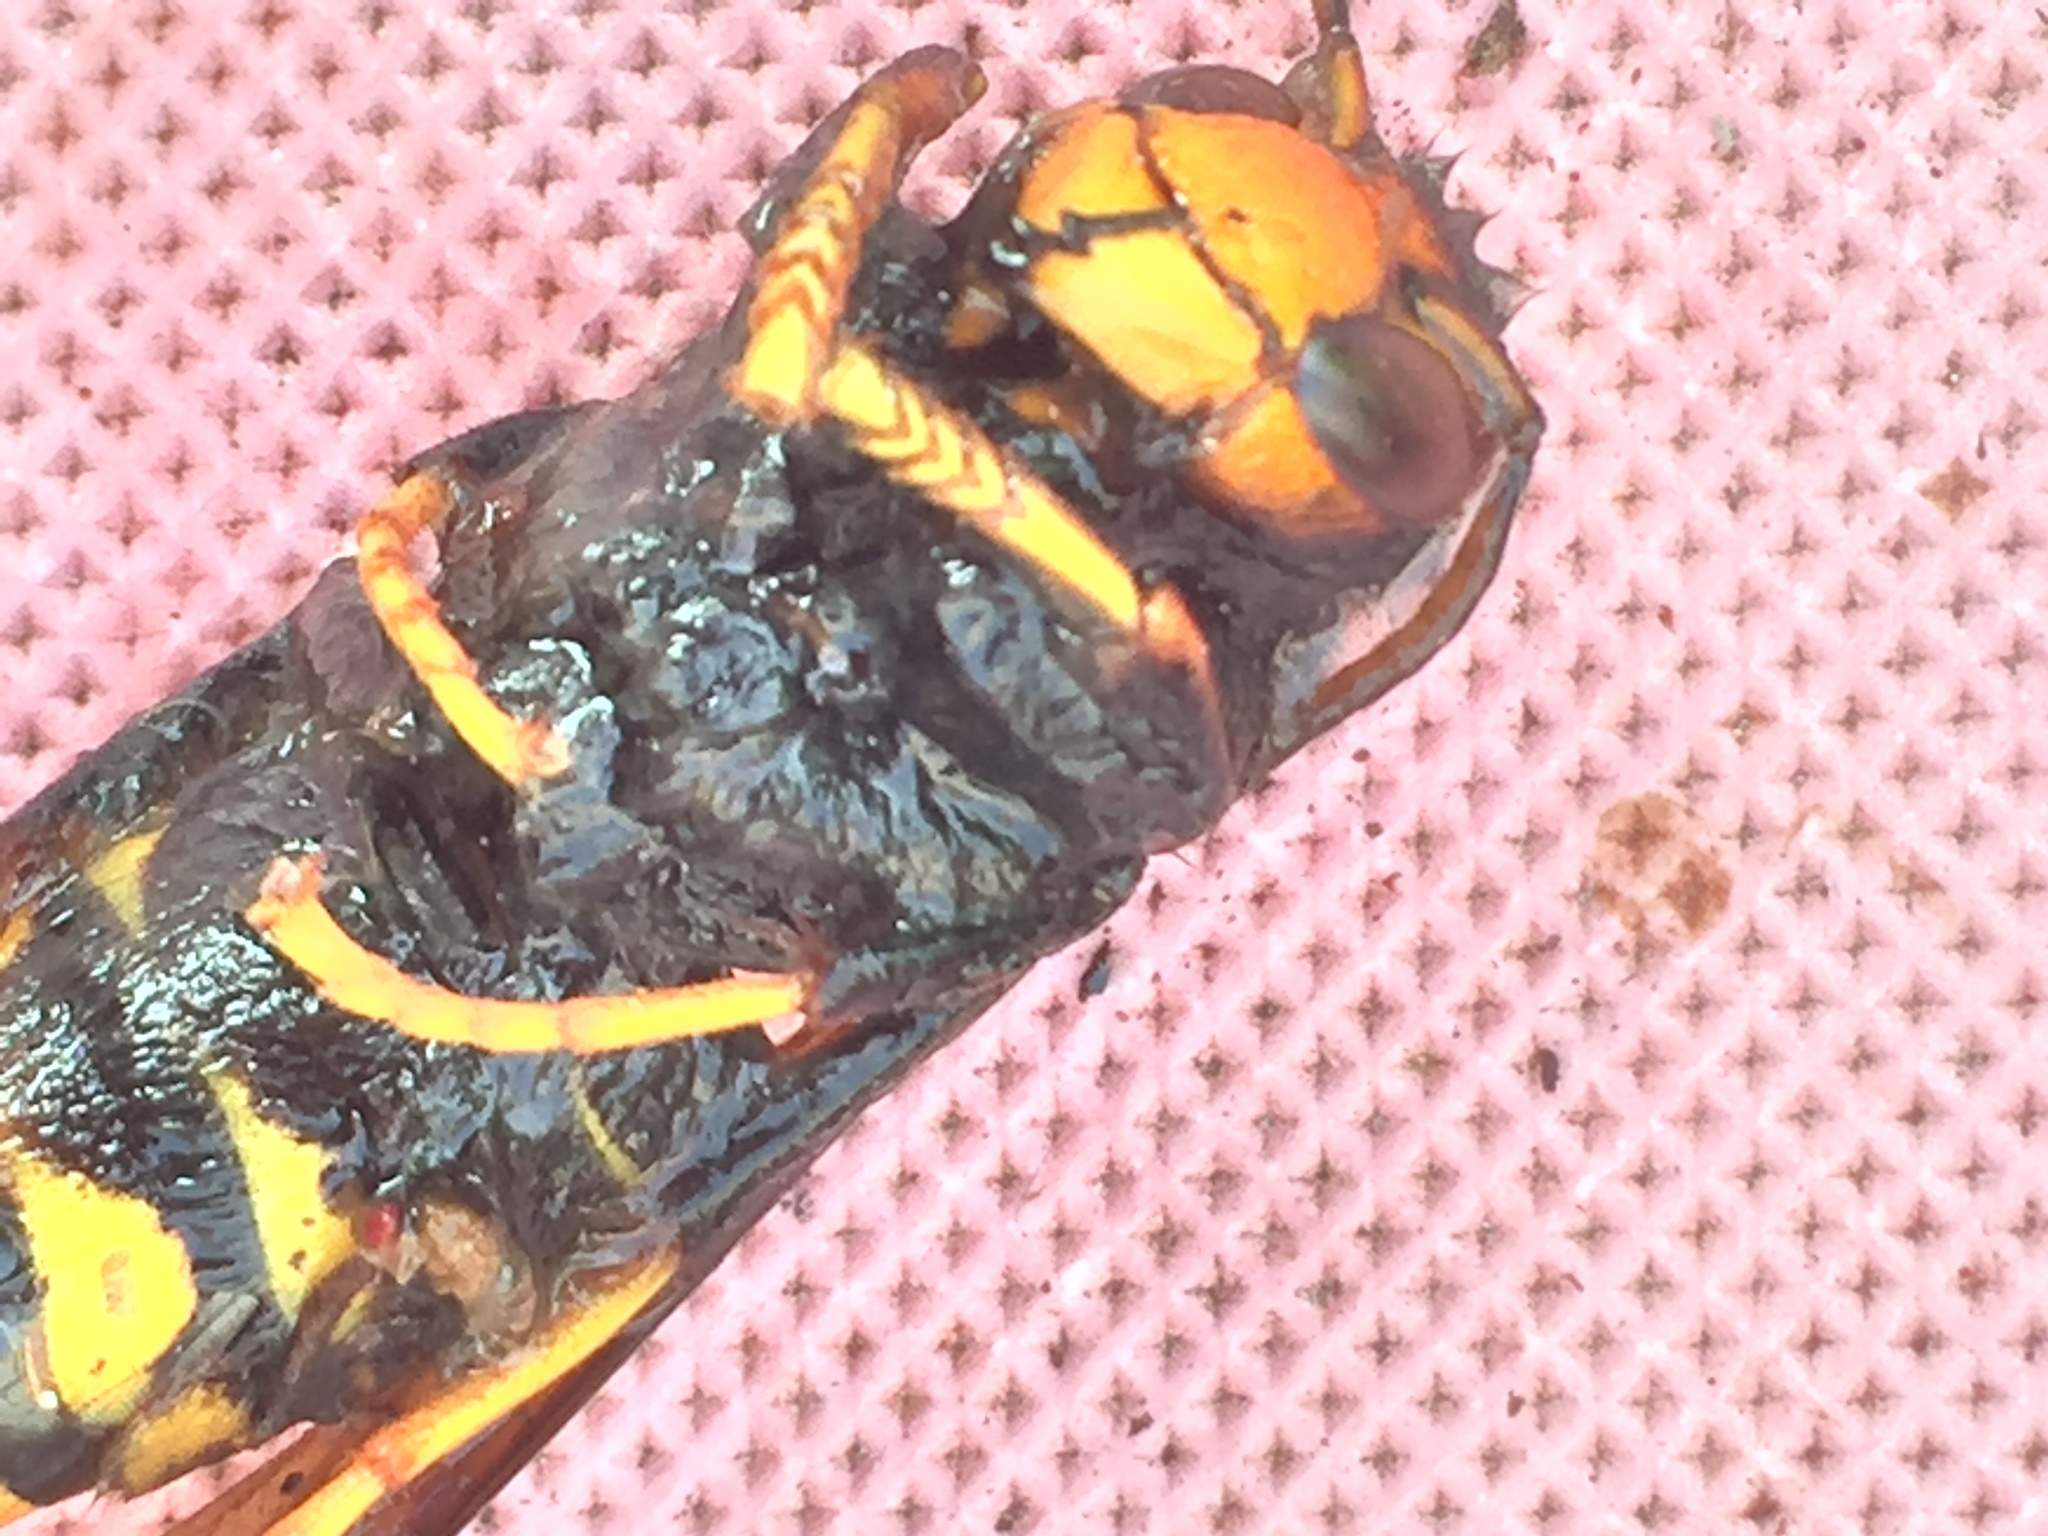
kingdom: Animalia
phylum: Arthropoda
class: Insecta
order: Hymenoptera
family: Vespidae
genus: Vespa
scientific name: Vespa velutina
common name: Asian hornet
